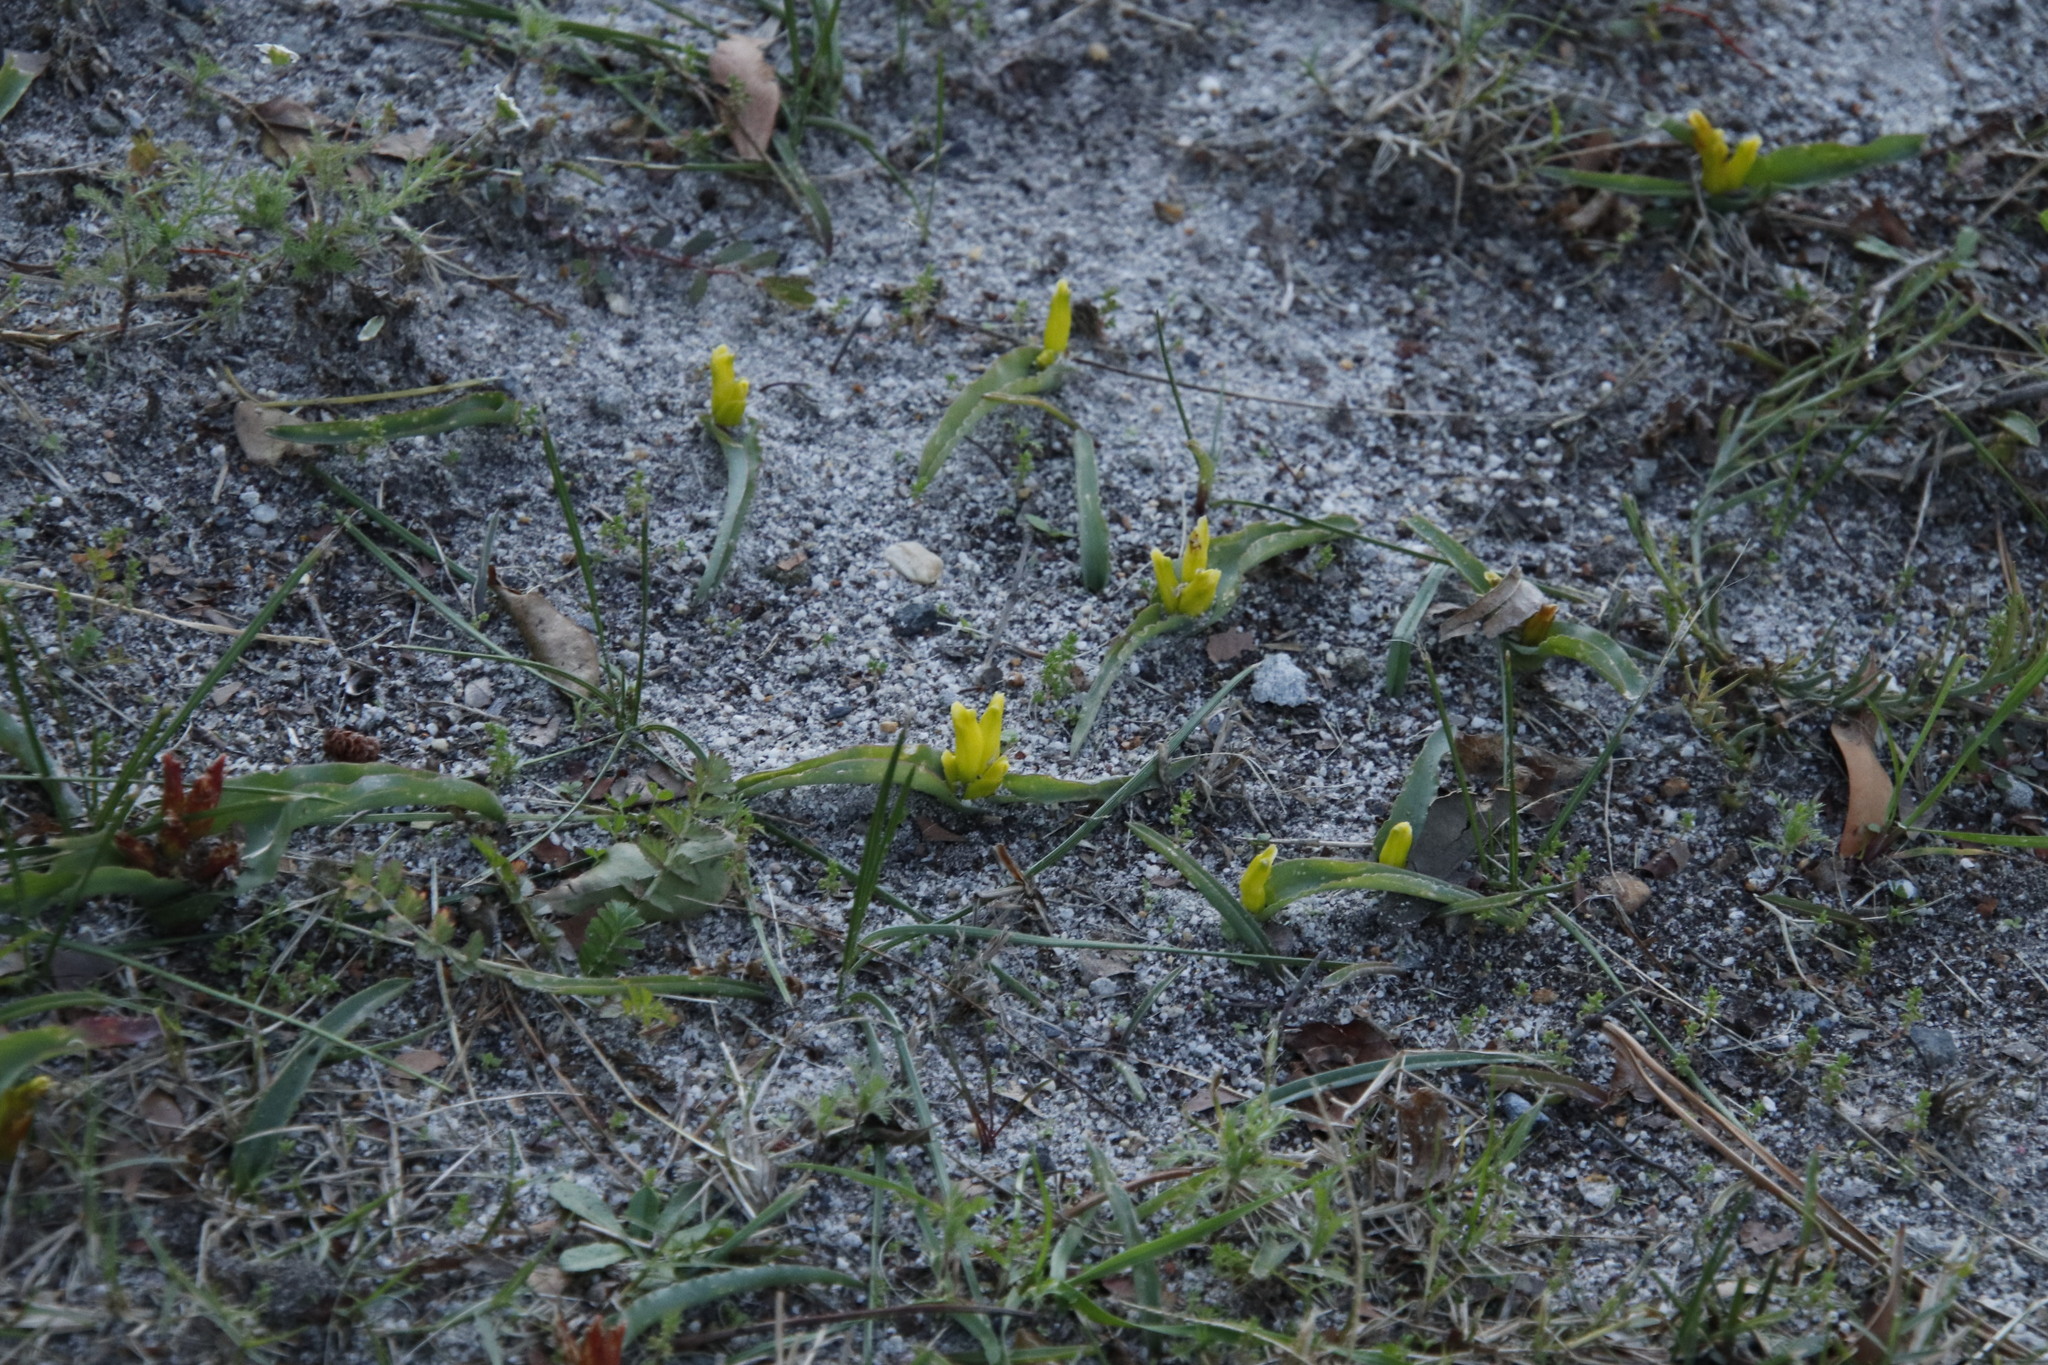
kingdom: Plantae
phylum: Tracheophyta
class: Liliopsida
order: Asparagales
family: Asparagaceae
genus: Lachenalia
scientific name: Lachenalia reflexa
